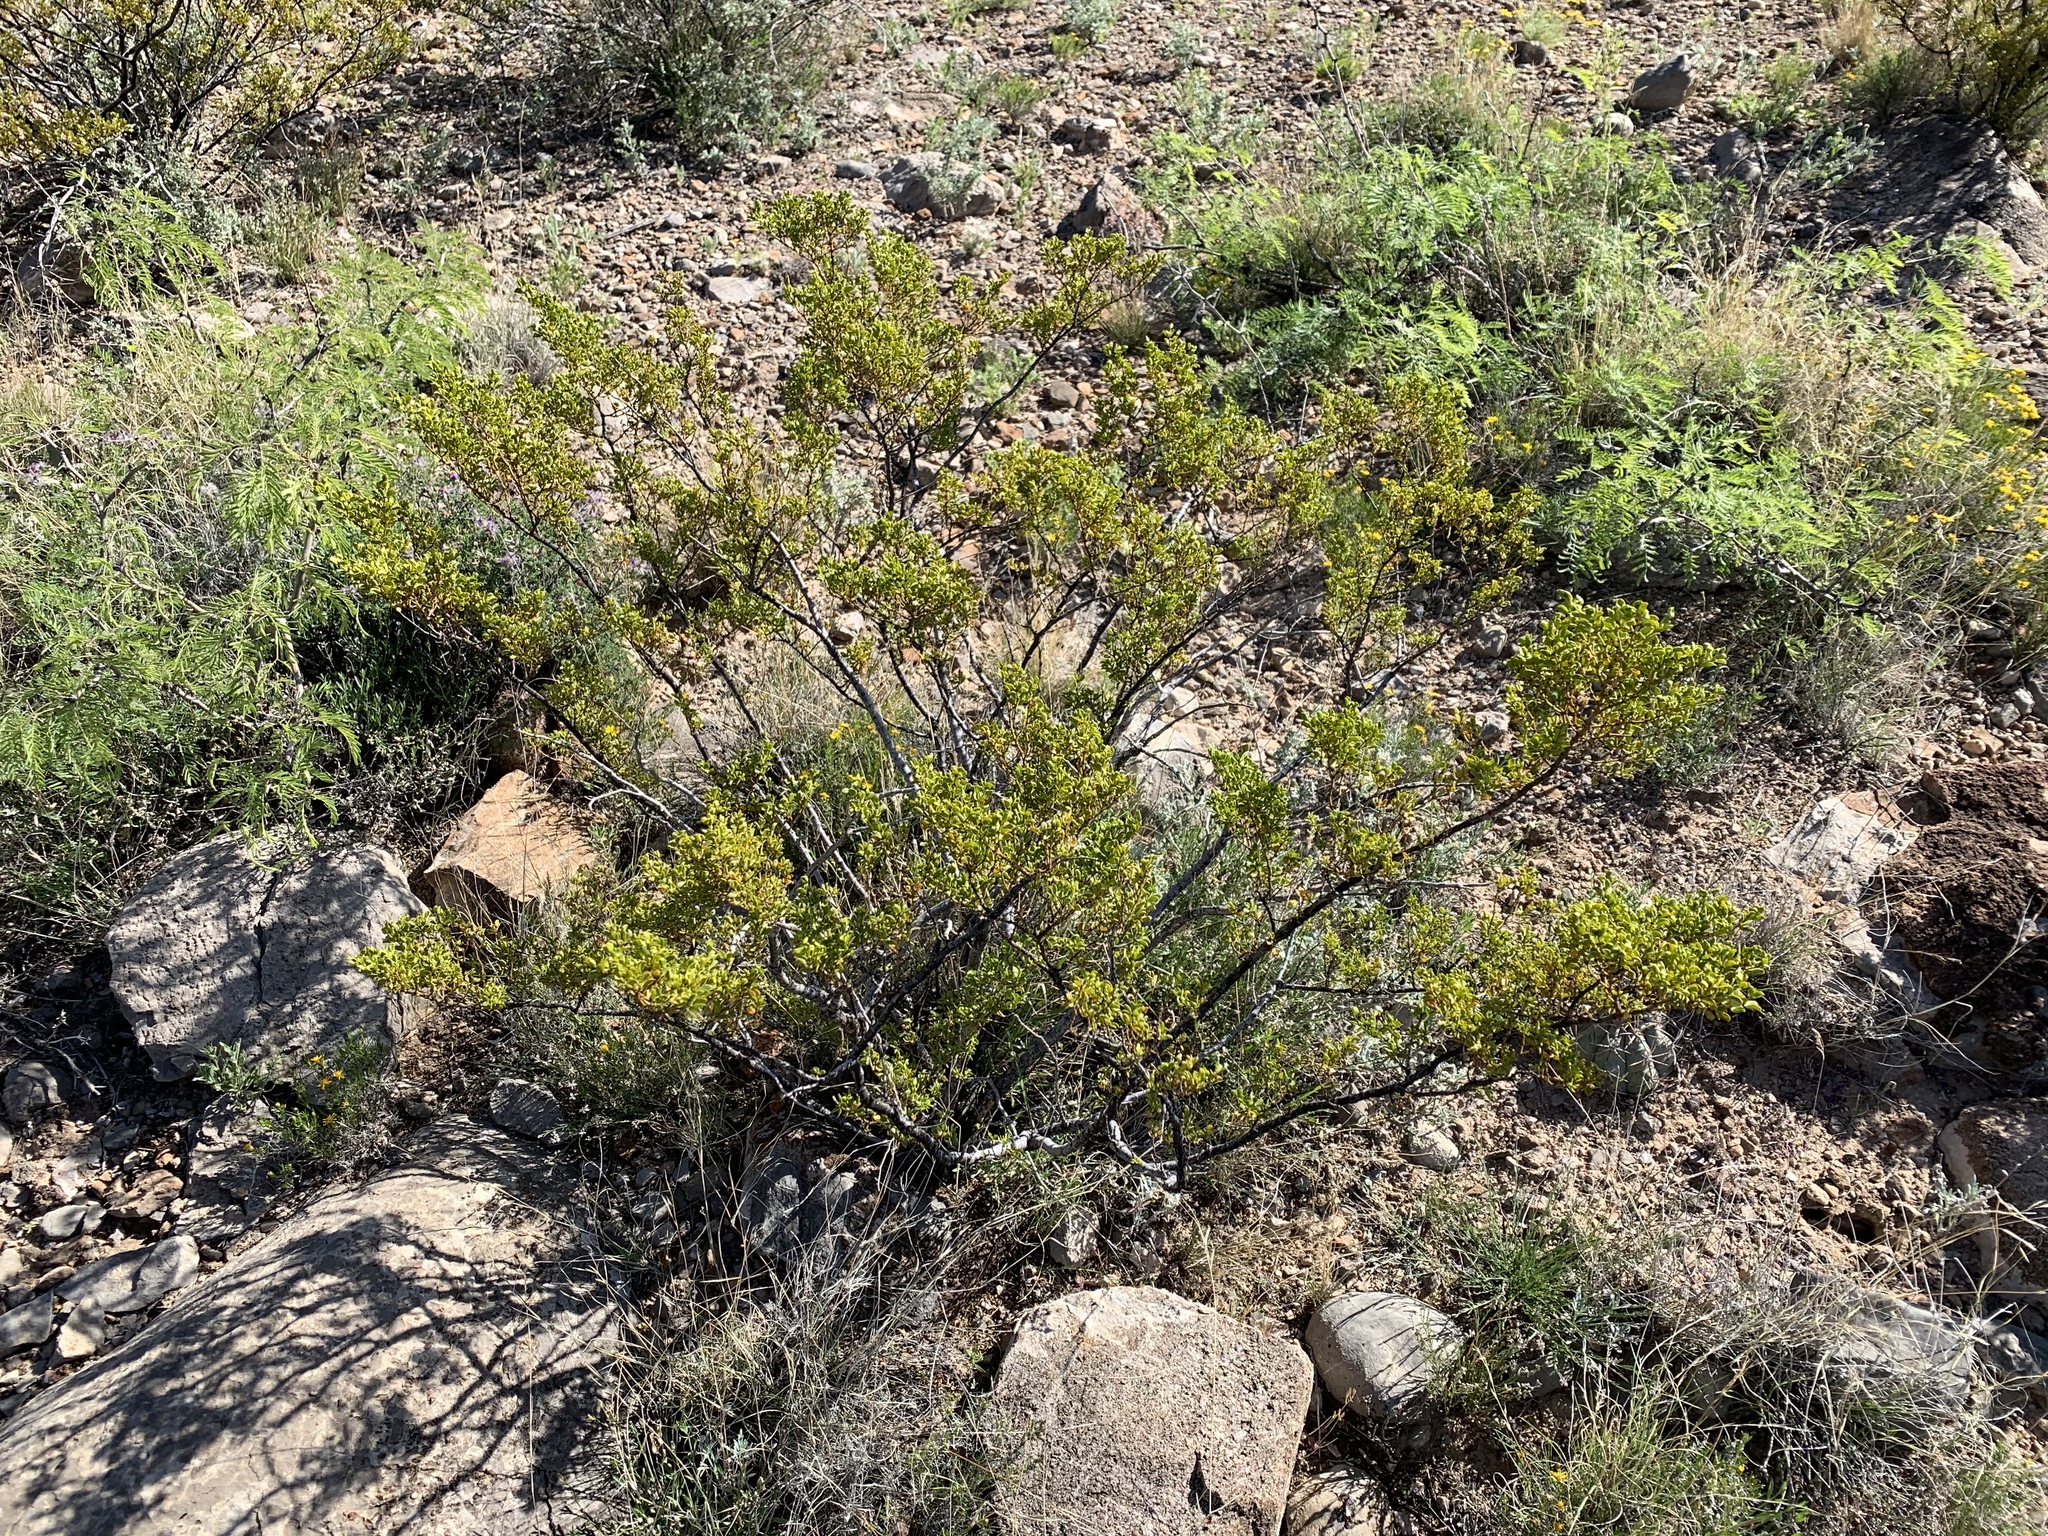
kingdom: Plantae
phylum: Tracheophyta
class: Magnoliopsida
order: Zygophyllales
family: Zygophyllaceae
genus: Larrea
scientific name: Larrea tridentata
